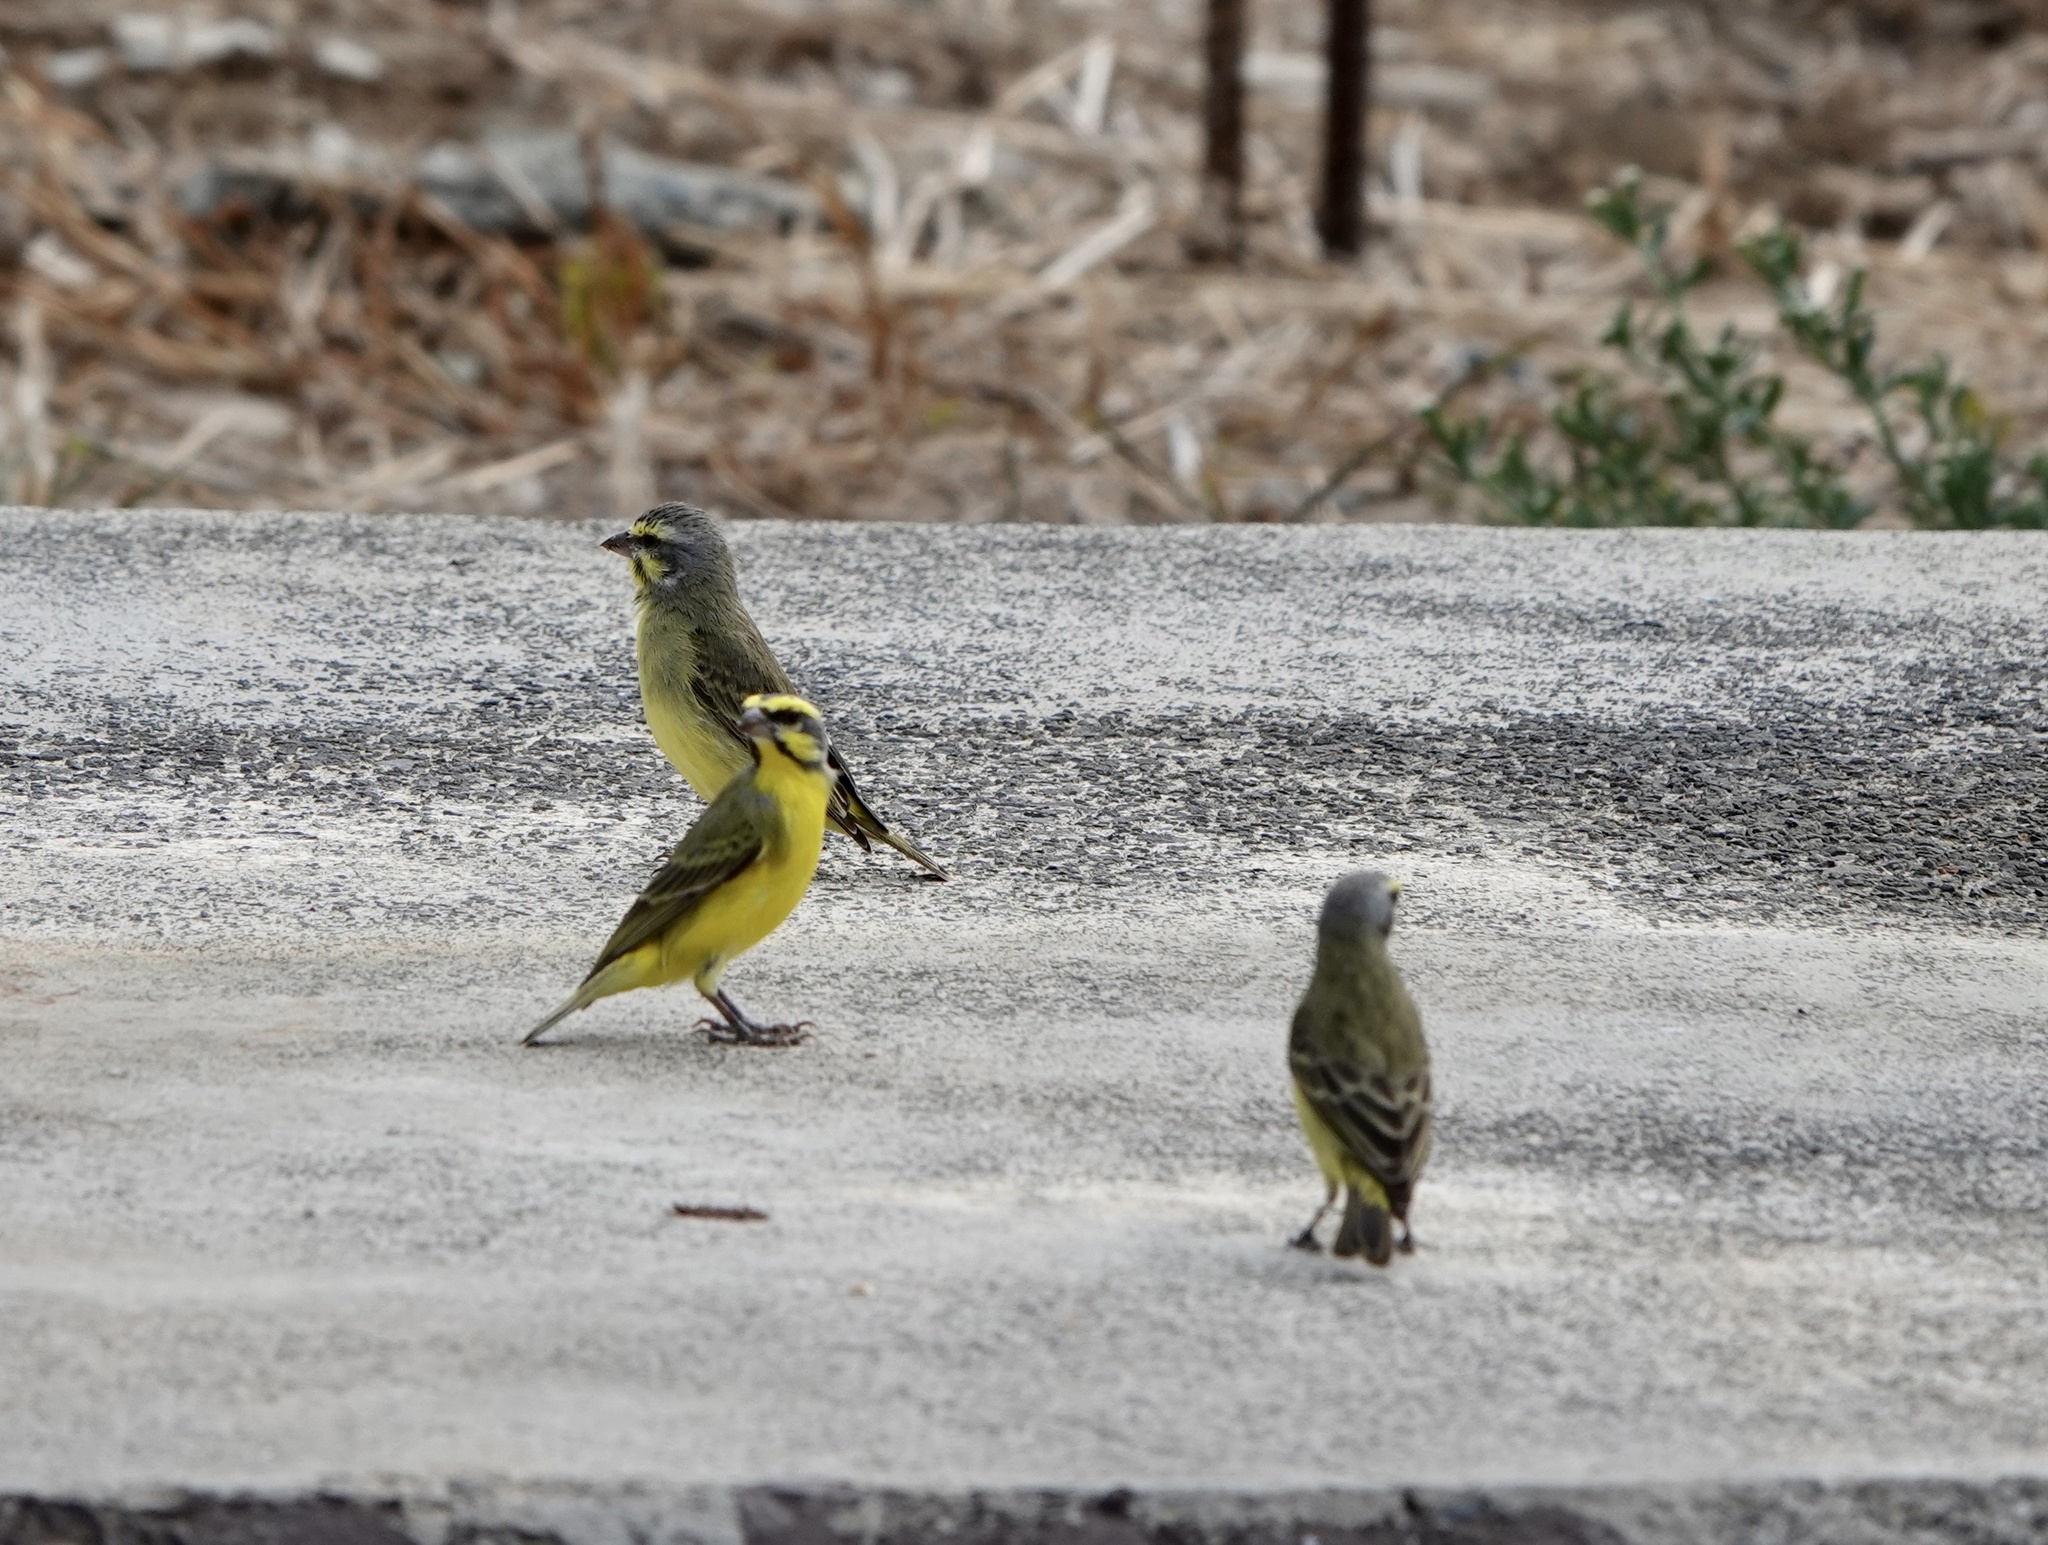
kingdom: Animalia
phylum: Chordata
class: Aves
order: Passeriformes
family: Fringillidae
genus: Crithagra
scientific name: Crithagra mozambica
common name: Yellow-fronted canary
